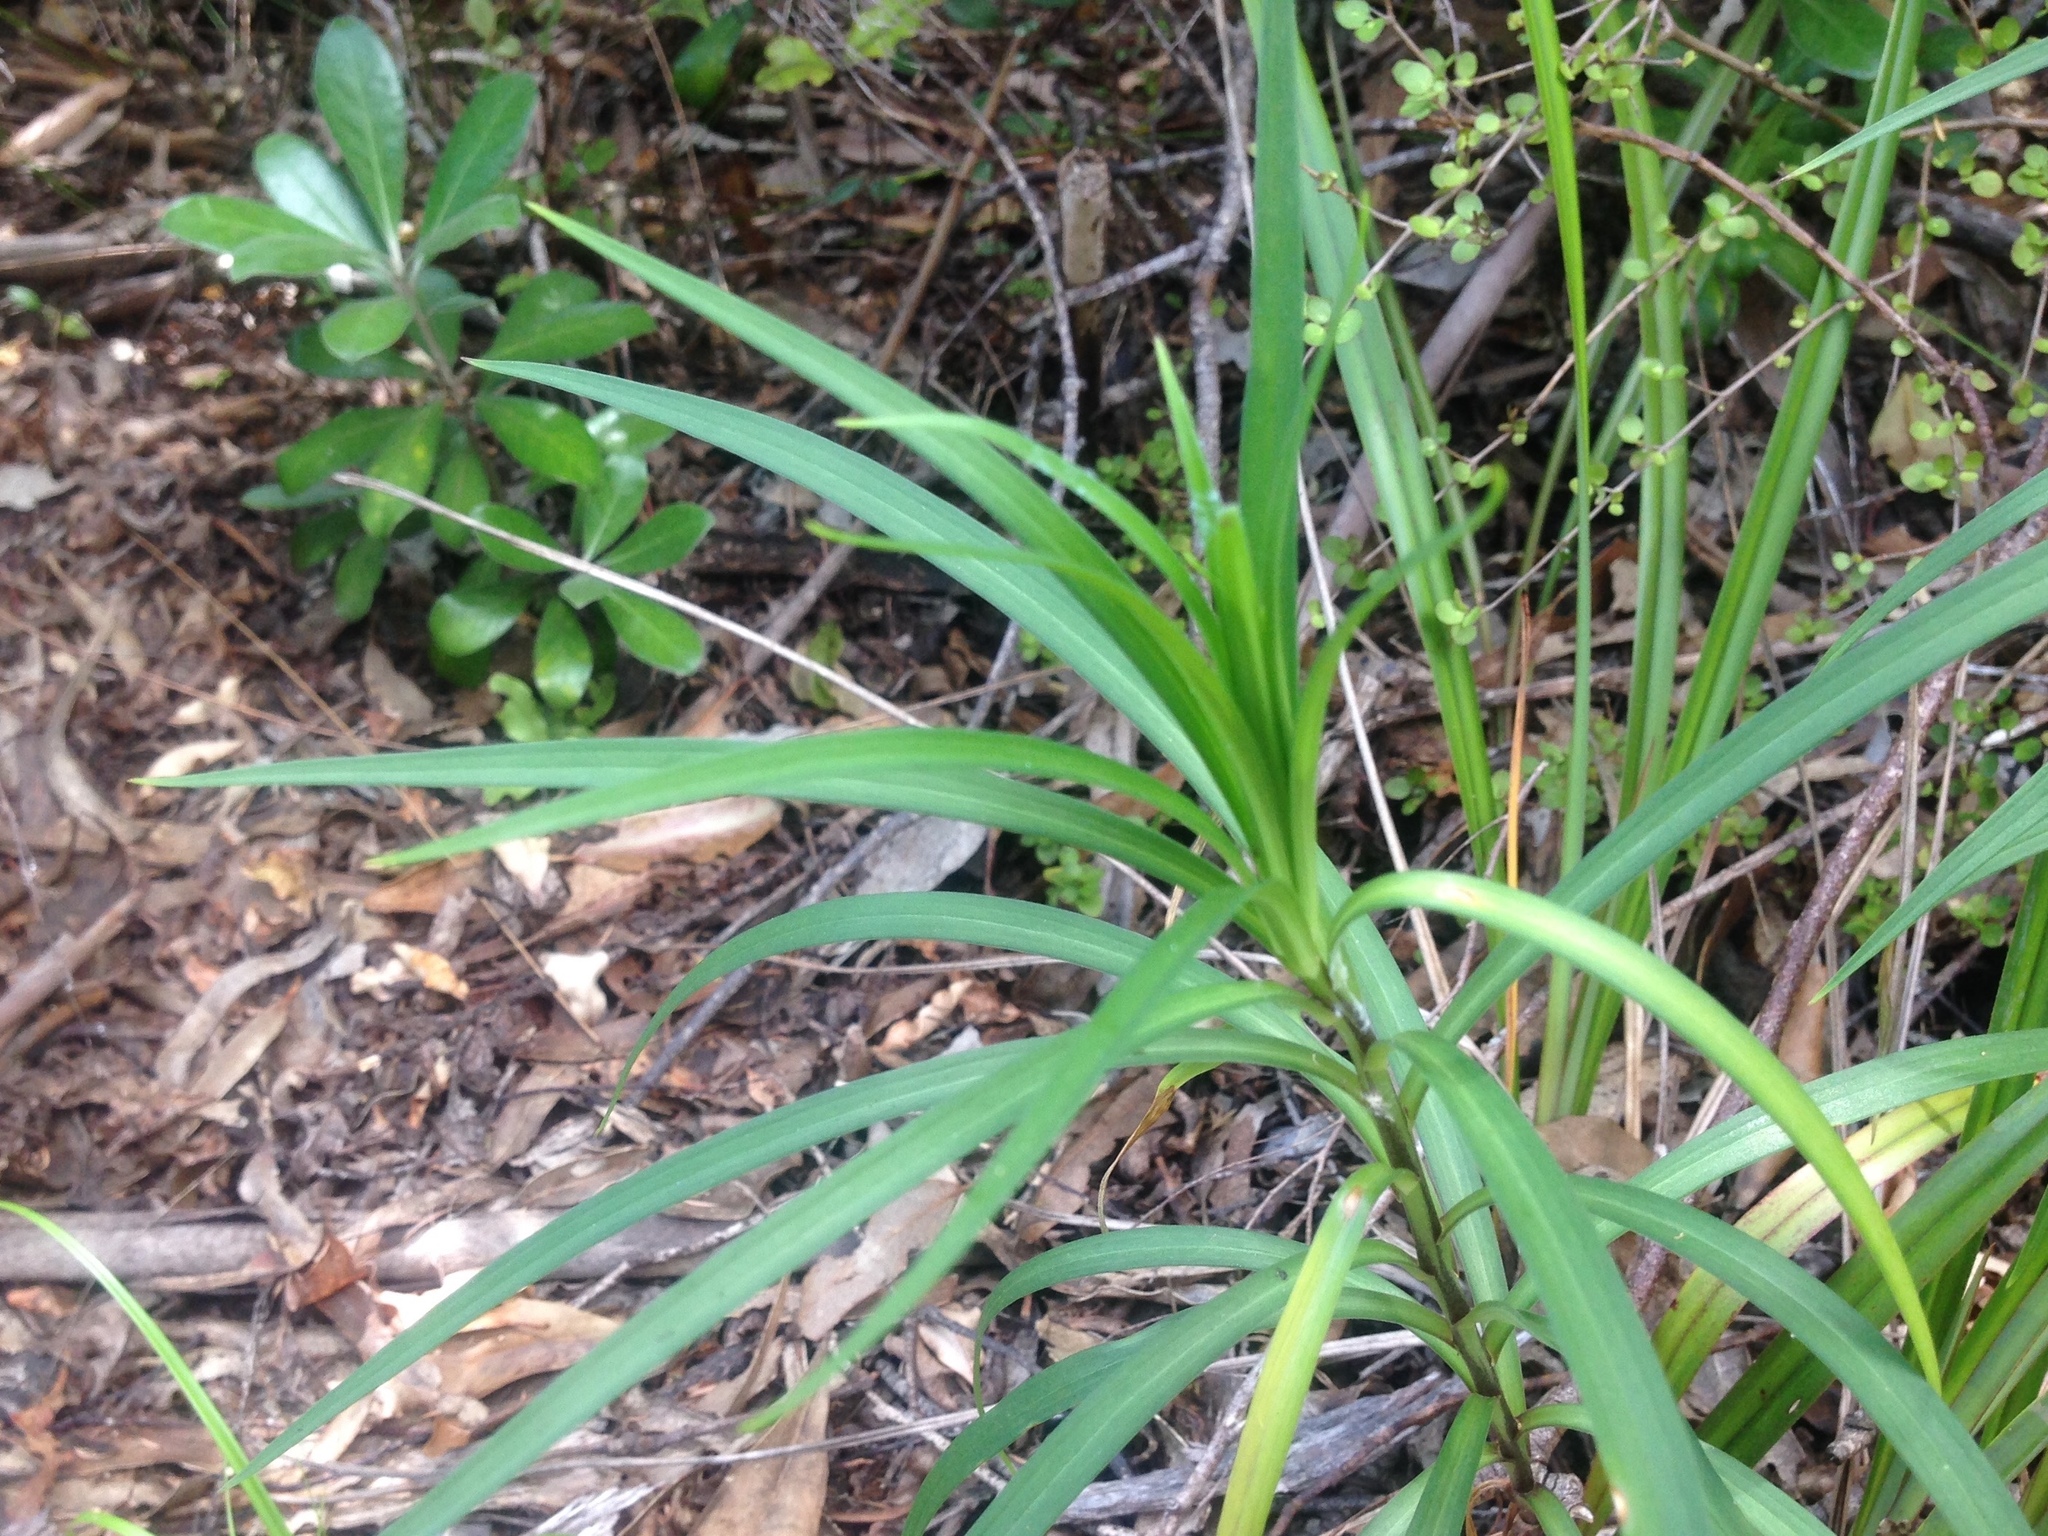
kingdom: Plantae
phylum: Tracheophyta
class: Liliopsida
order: Liliales
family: Liliaceae
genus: Lilium
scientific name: Lilium formosanum
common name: Formosa lily
